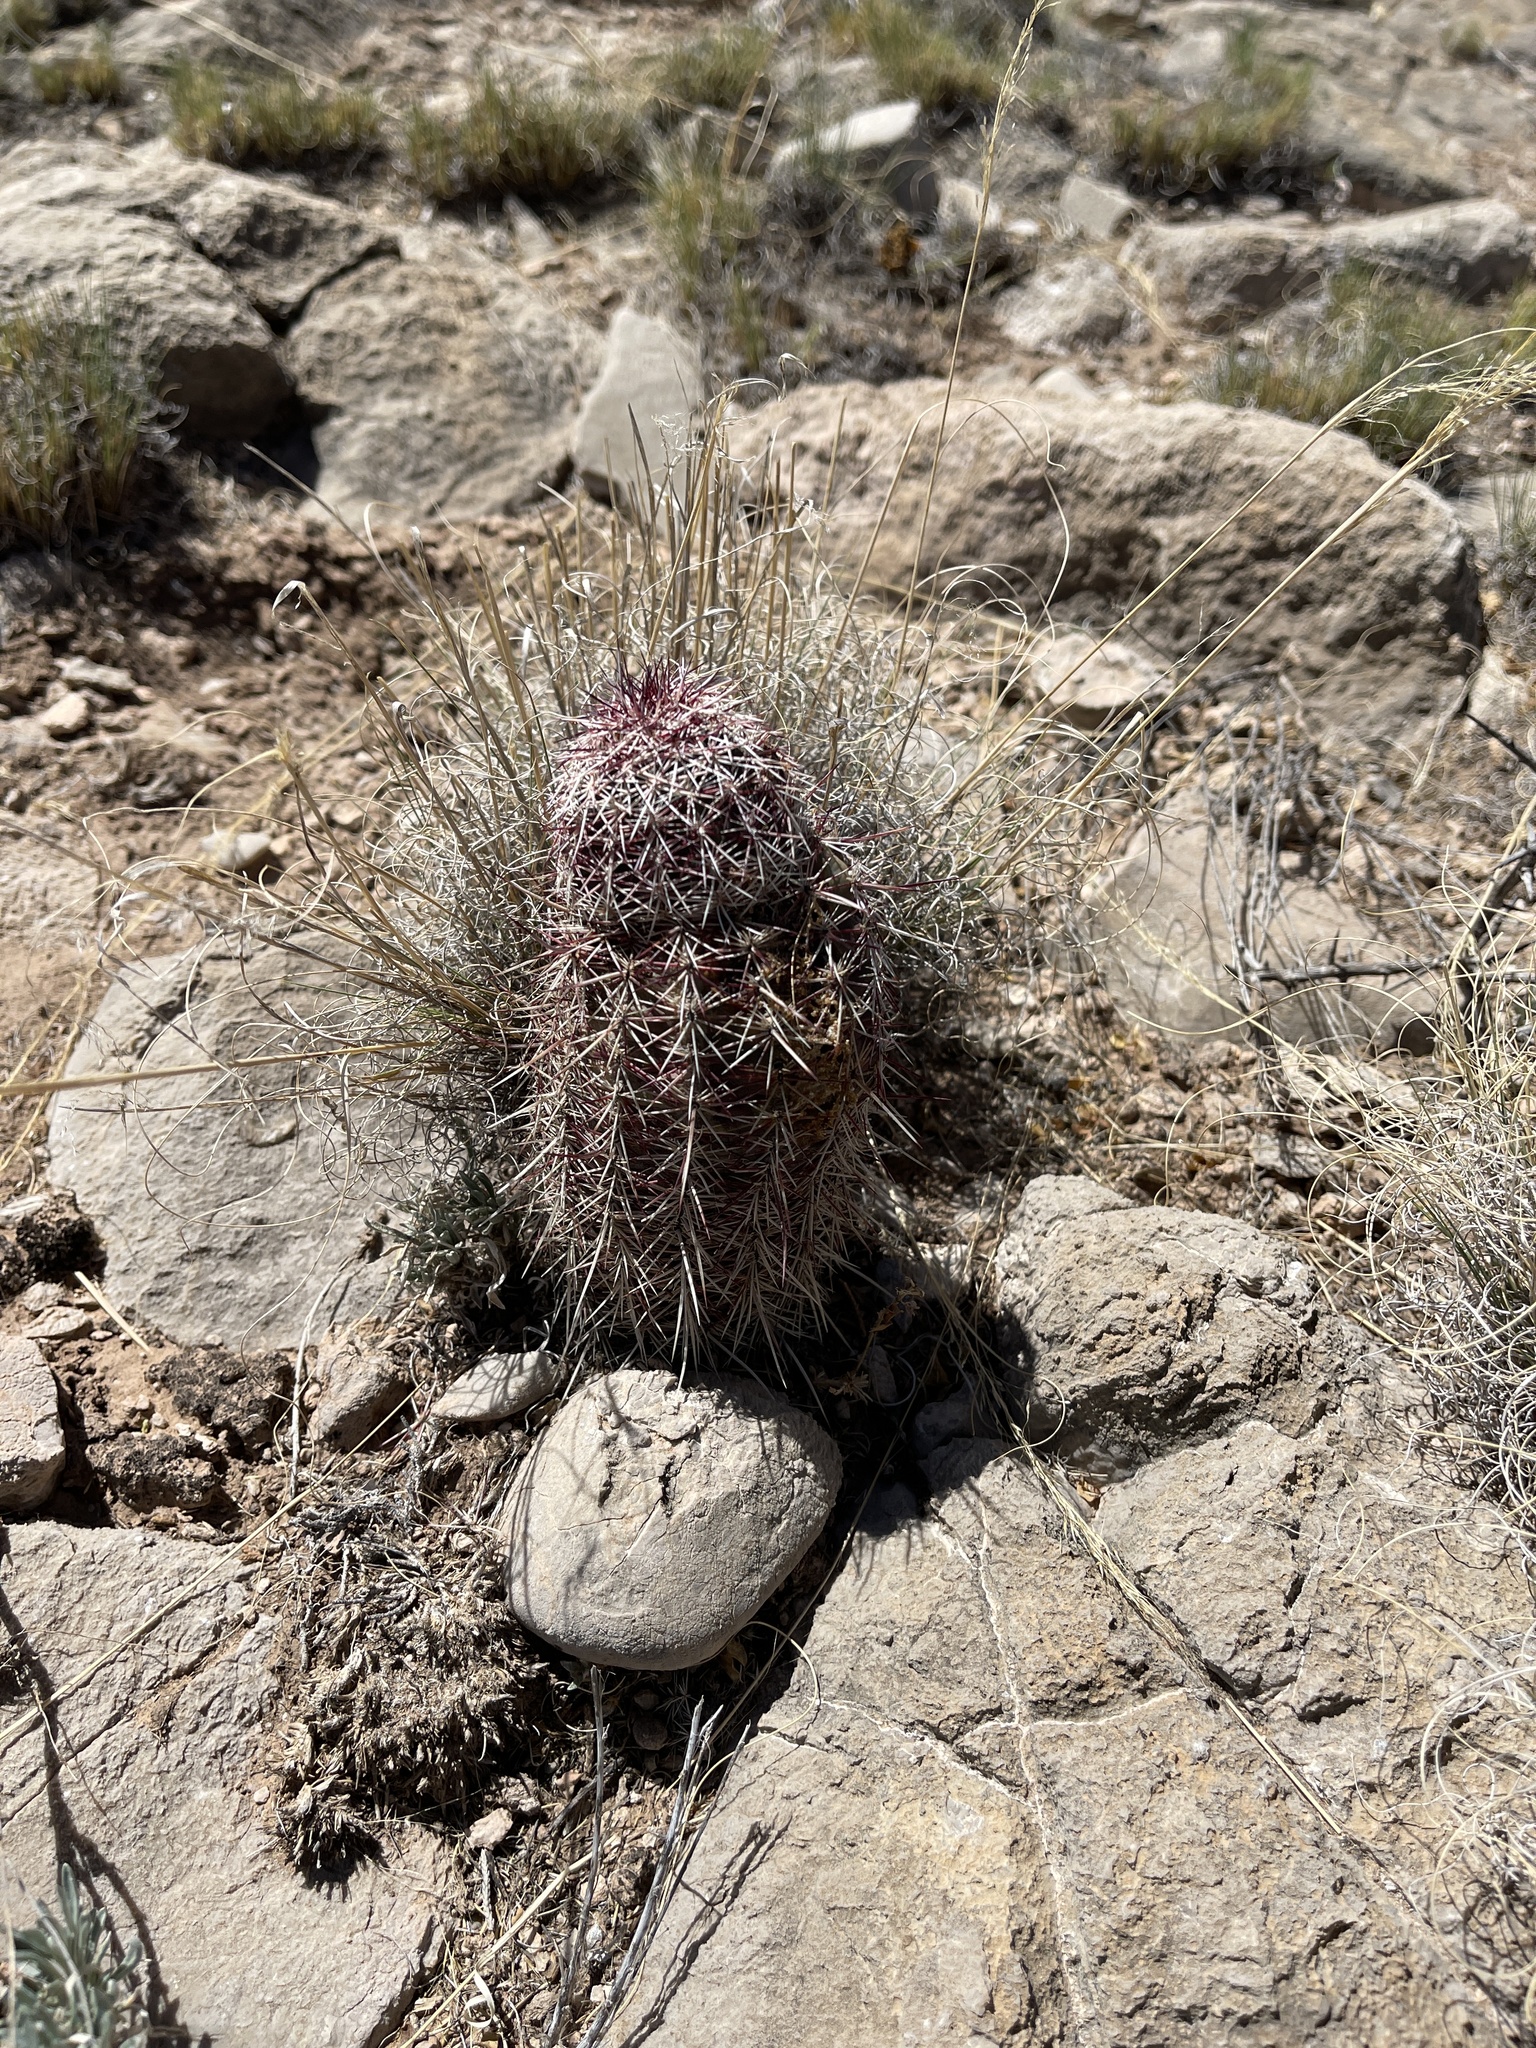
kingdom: Plantae
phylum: Tracheophyta
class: Magnoliopsida
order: Caryophyllales
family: Cactaceae
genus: Echinocereus
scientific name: Echinocereus viridiflorus
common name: Nylon hedgehog cactus
